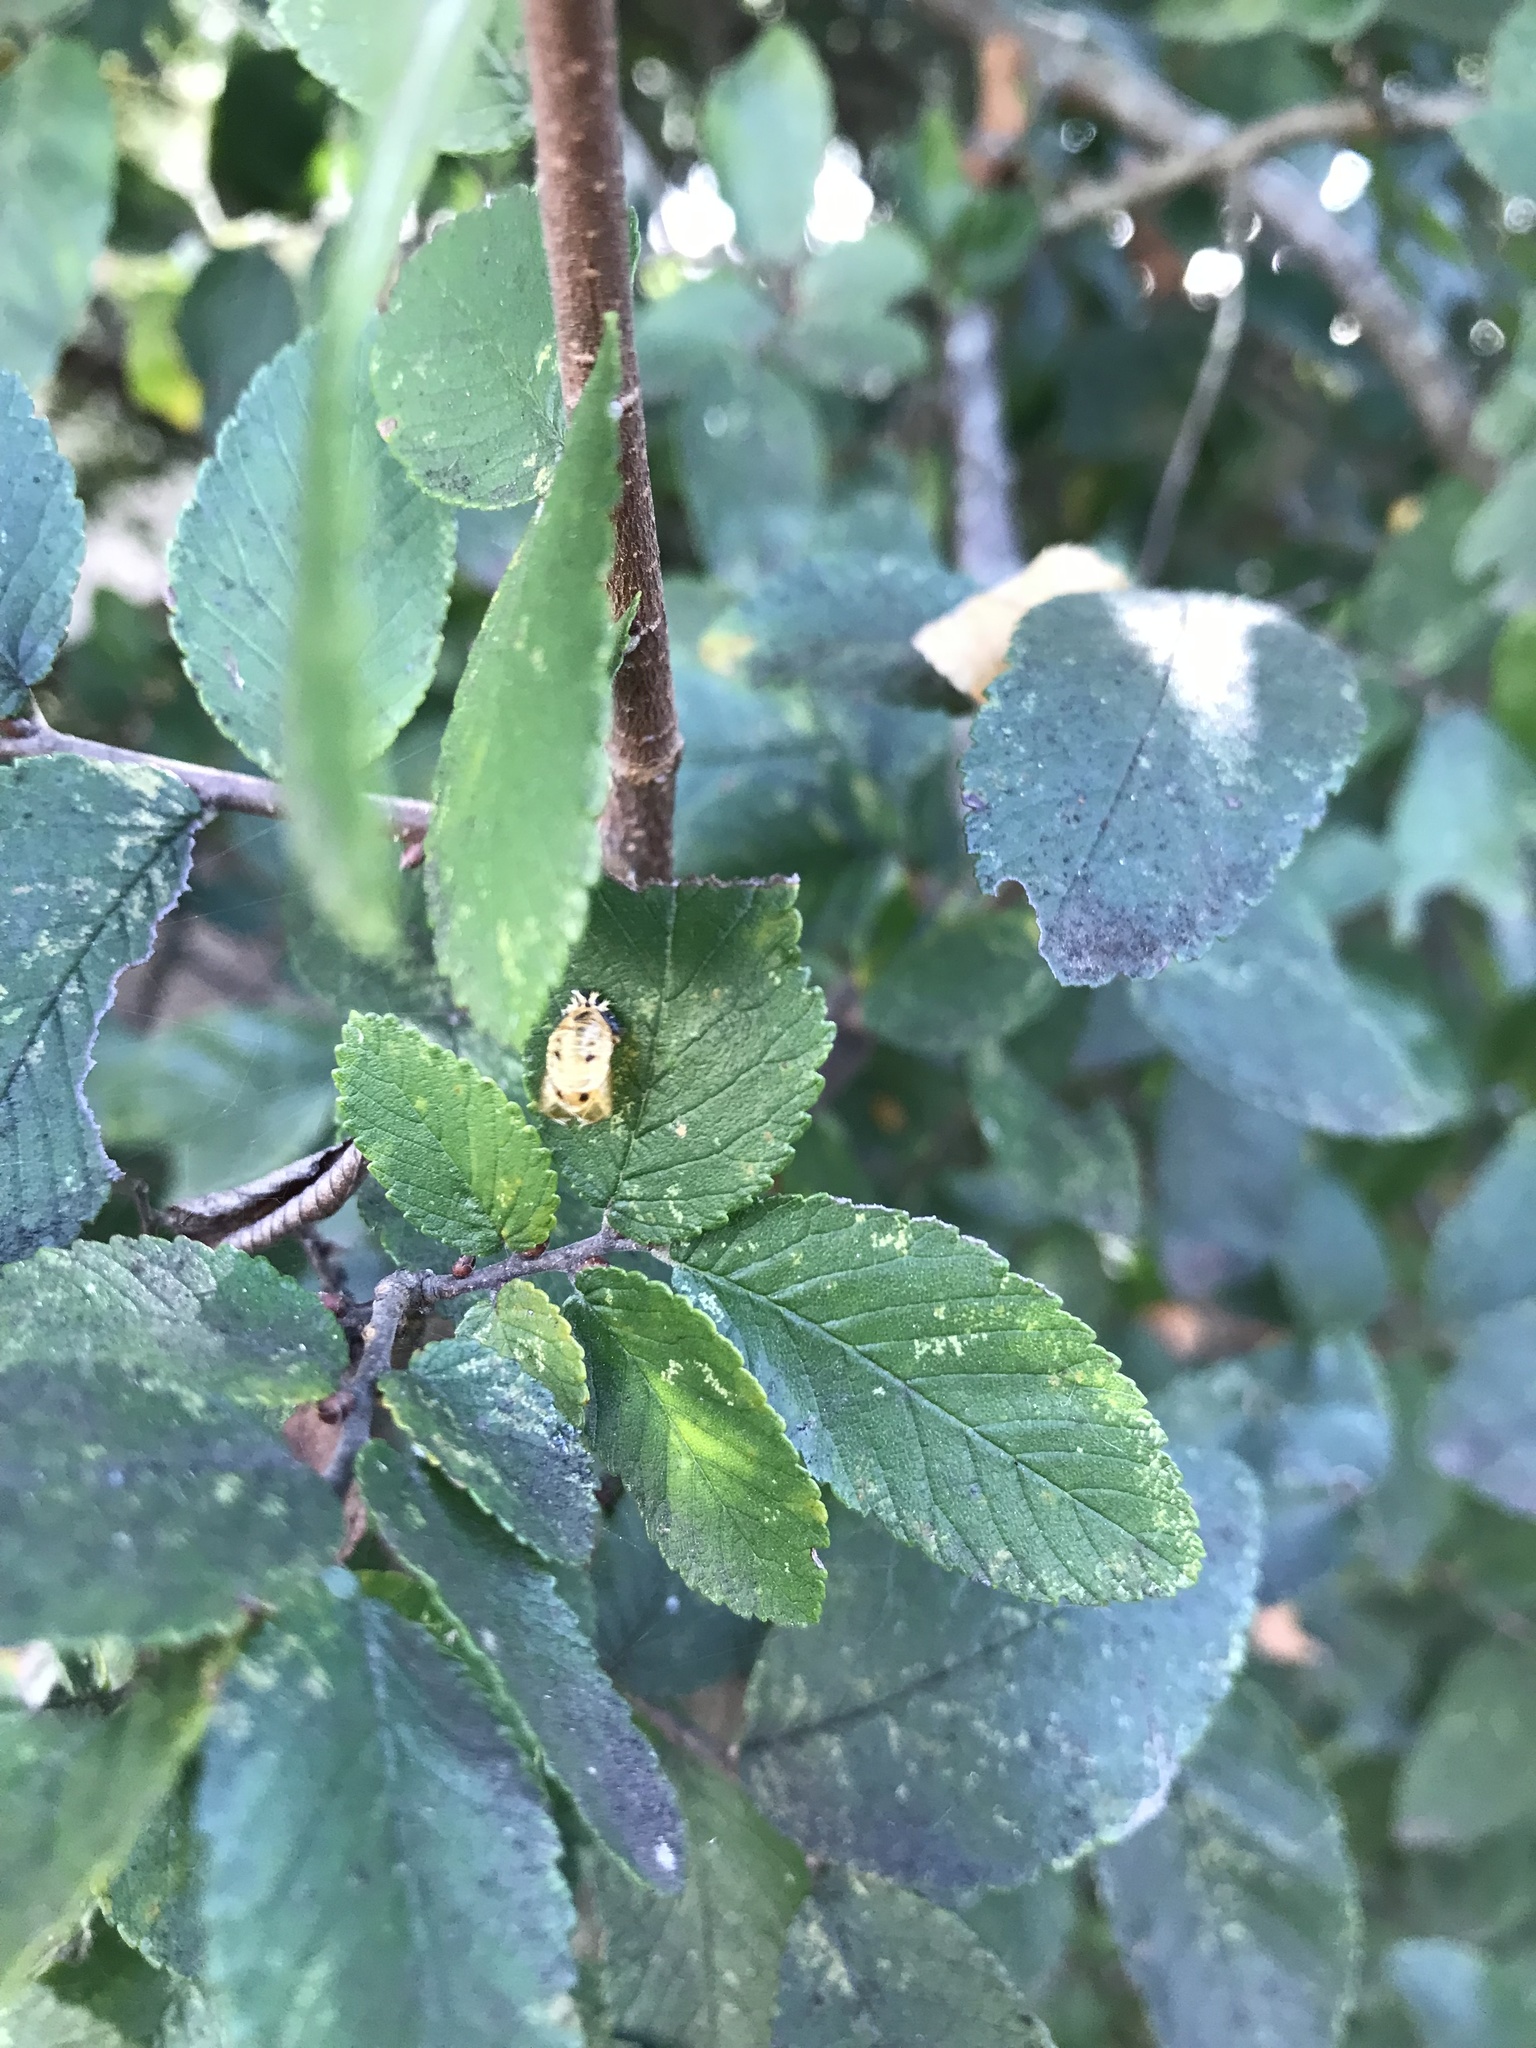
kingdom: Animalia
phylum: Arthropoda
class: Insecta
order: Coleoptera
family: Coccinellidae
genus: Harmonia
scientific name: Harmonia axyridis
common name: Harlequin ladybird
